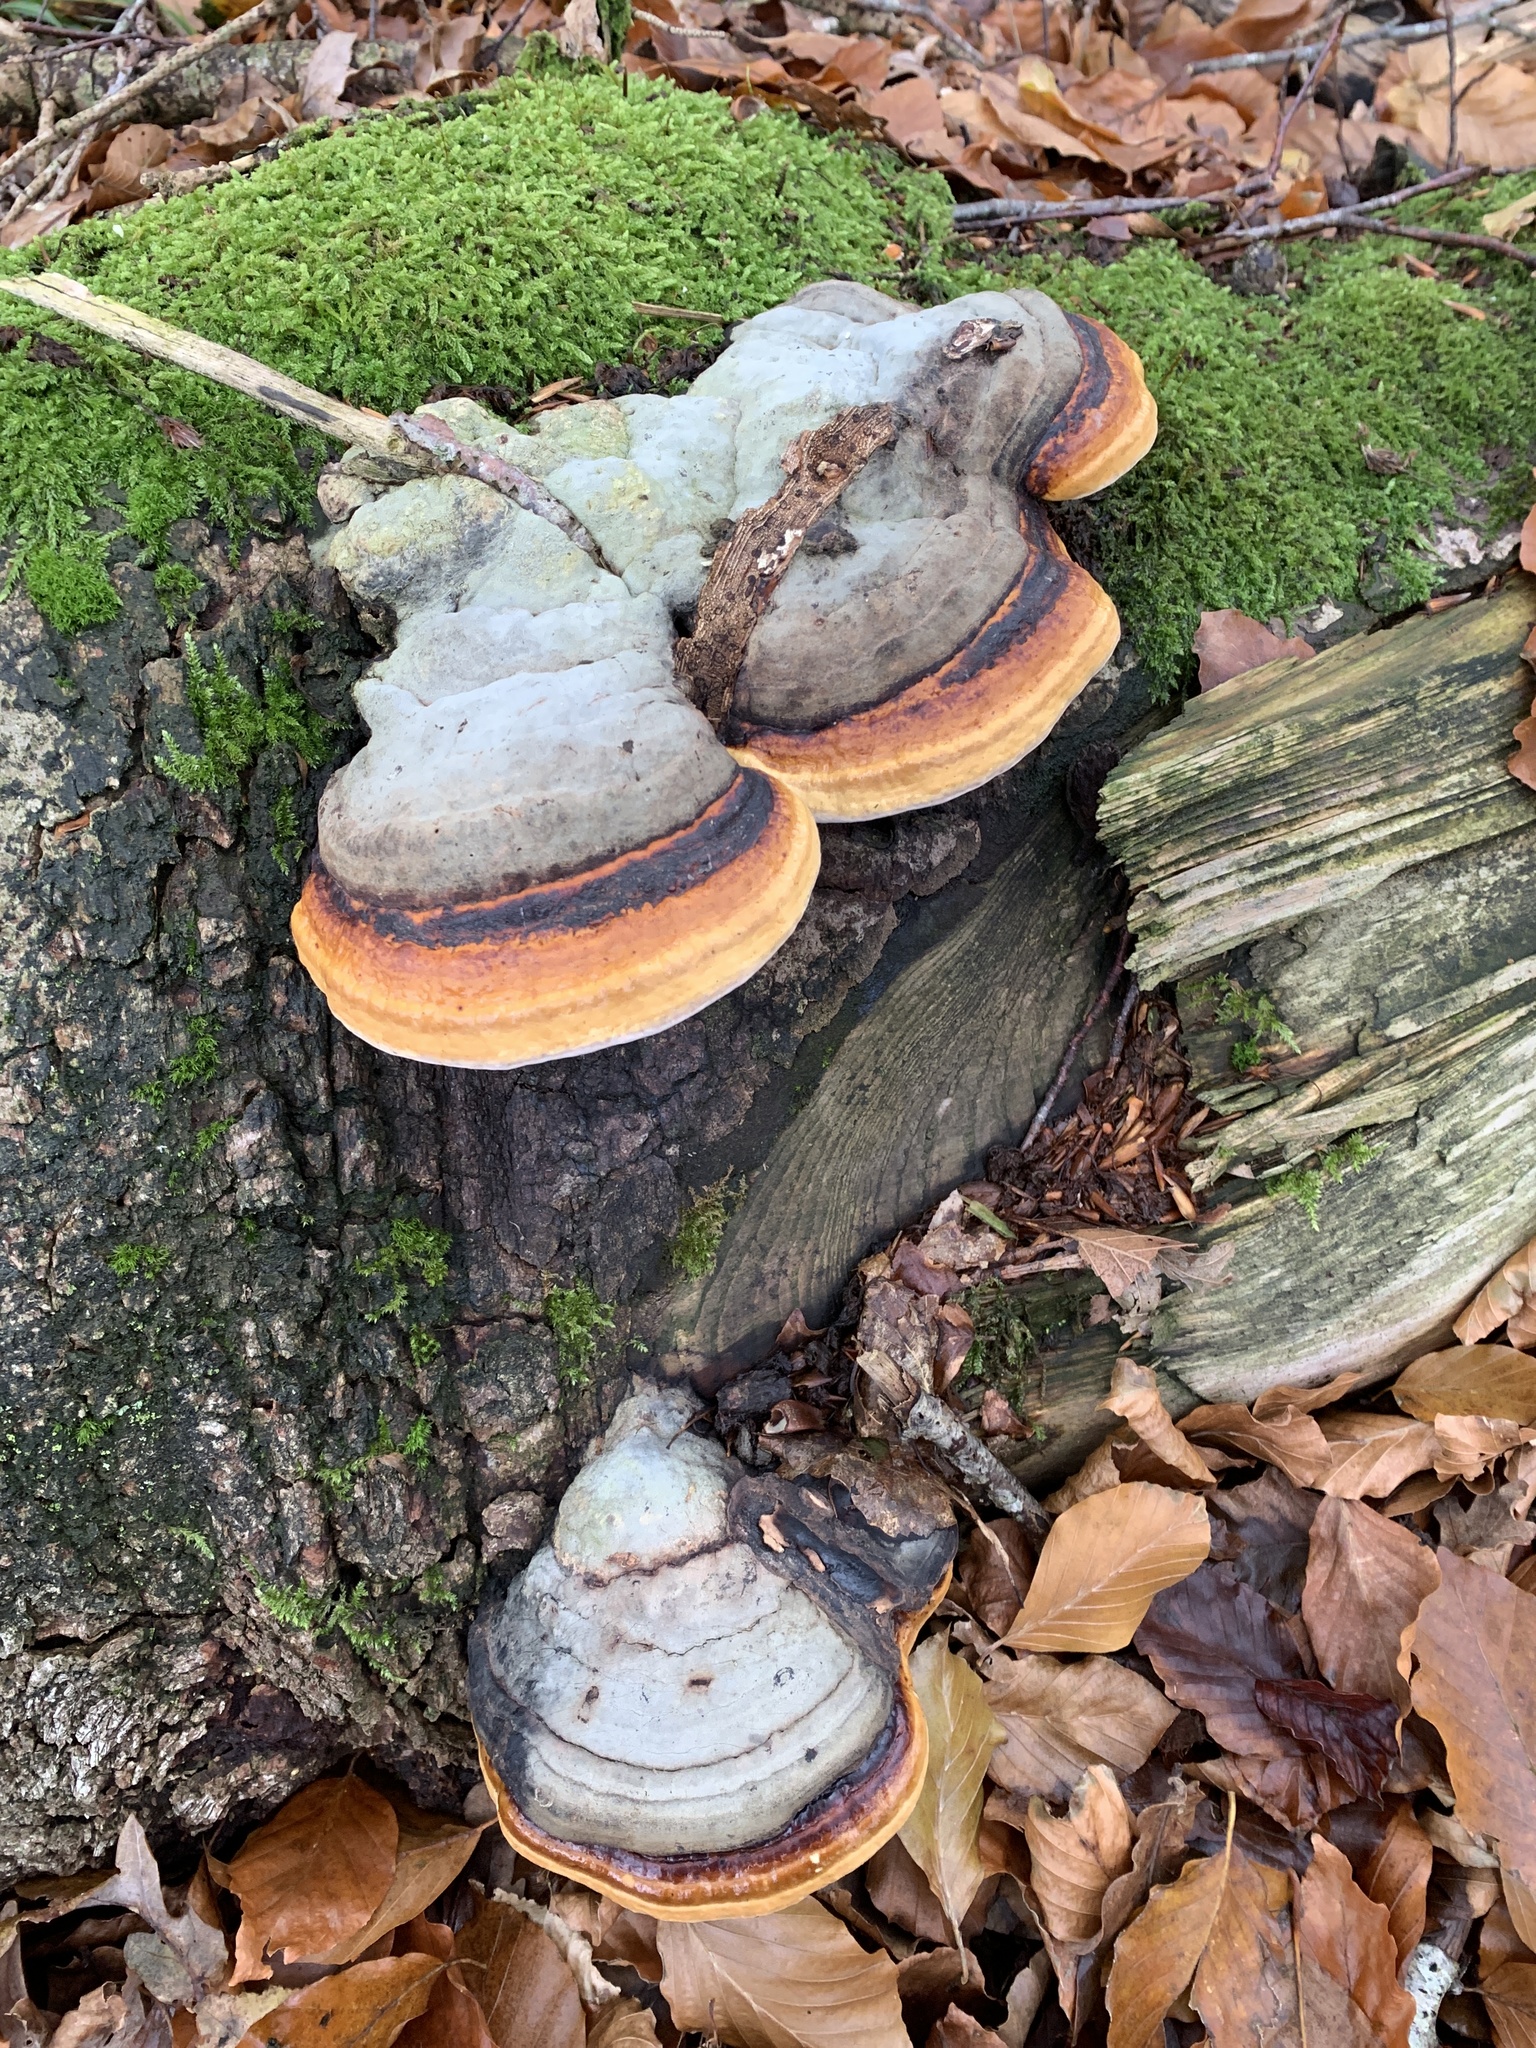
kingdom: Fungi
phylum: Basidiomycota
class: Agaricomycetes
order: Polyporales
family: Fomitopsidaceae
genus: Fomitopsis
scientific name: Fomitopsis pinicola
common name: Red-belted bracket
